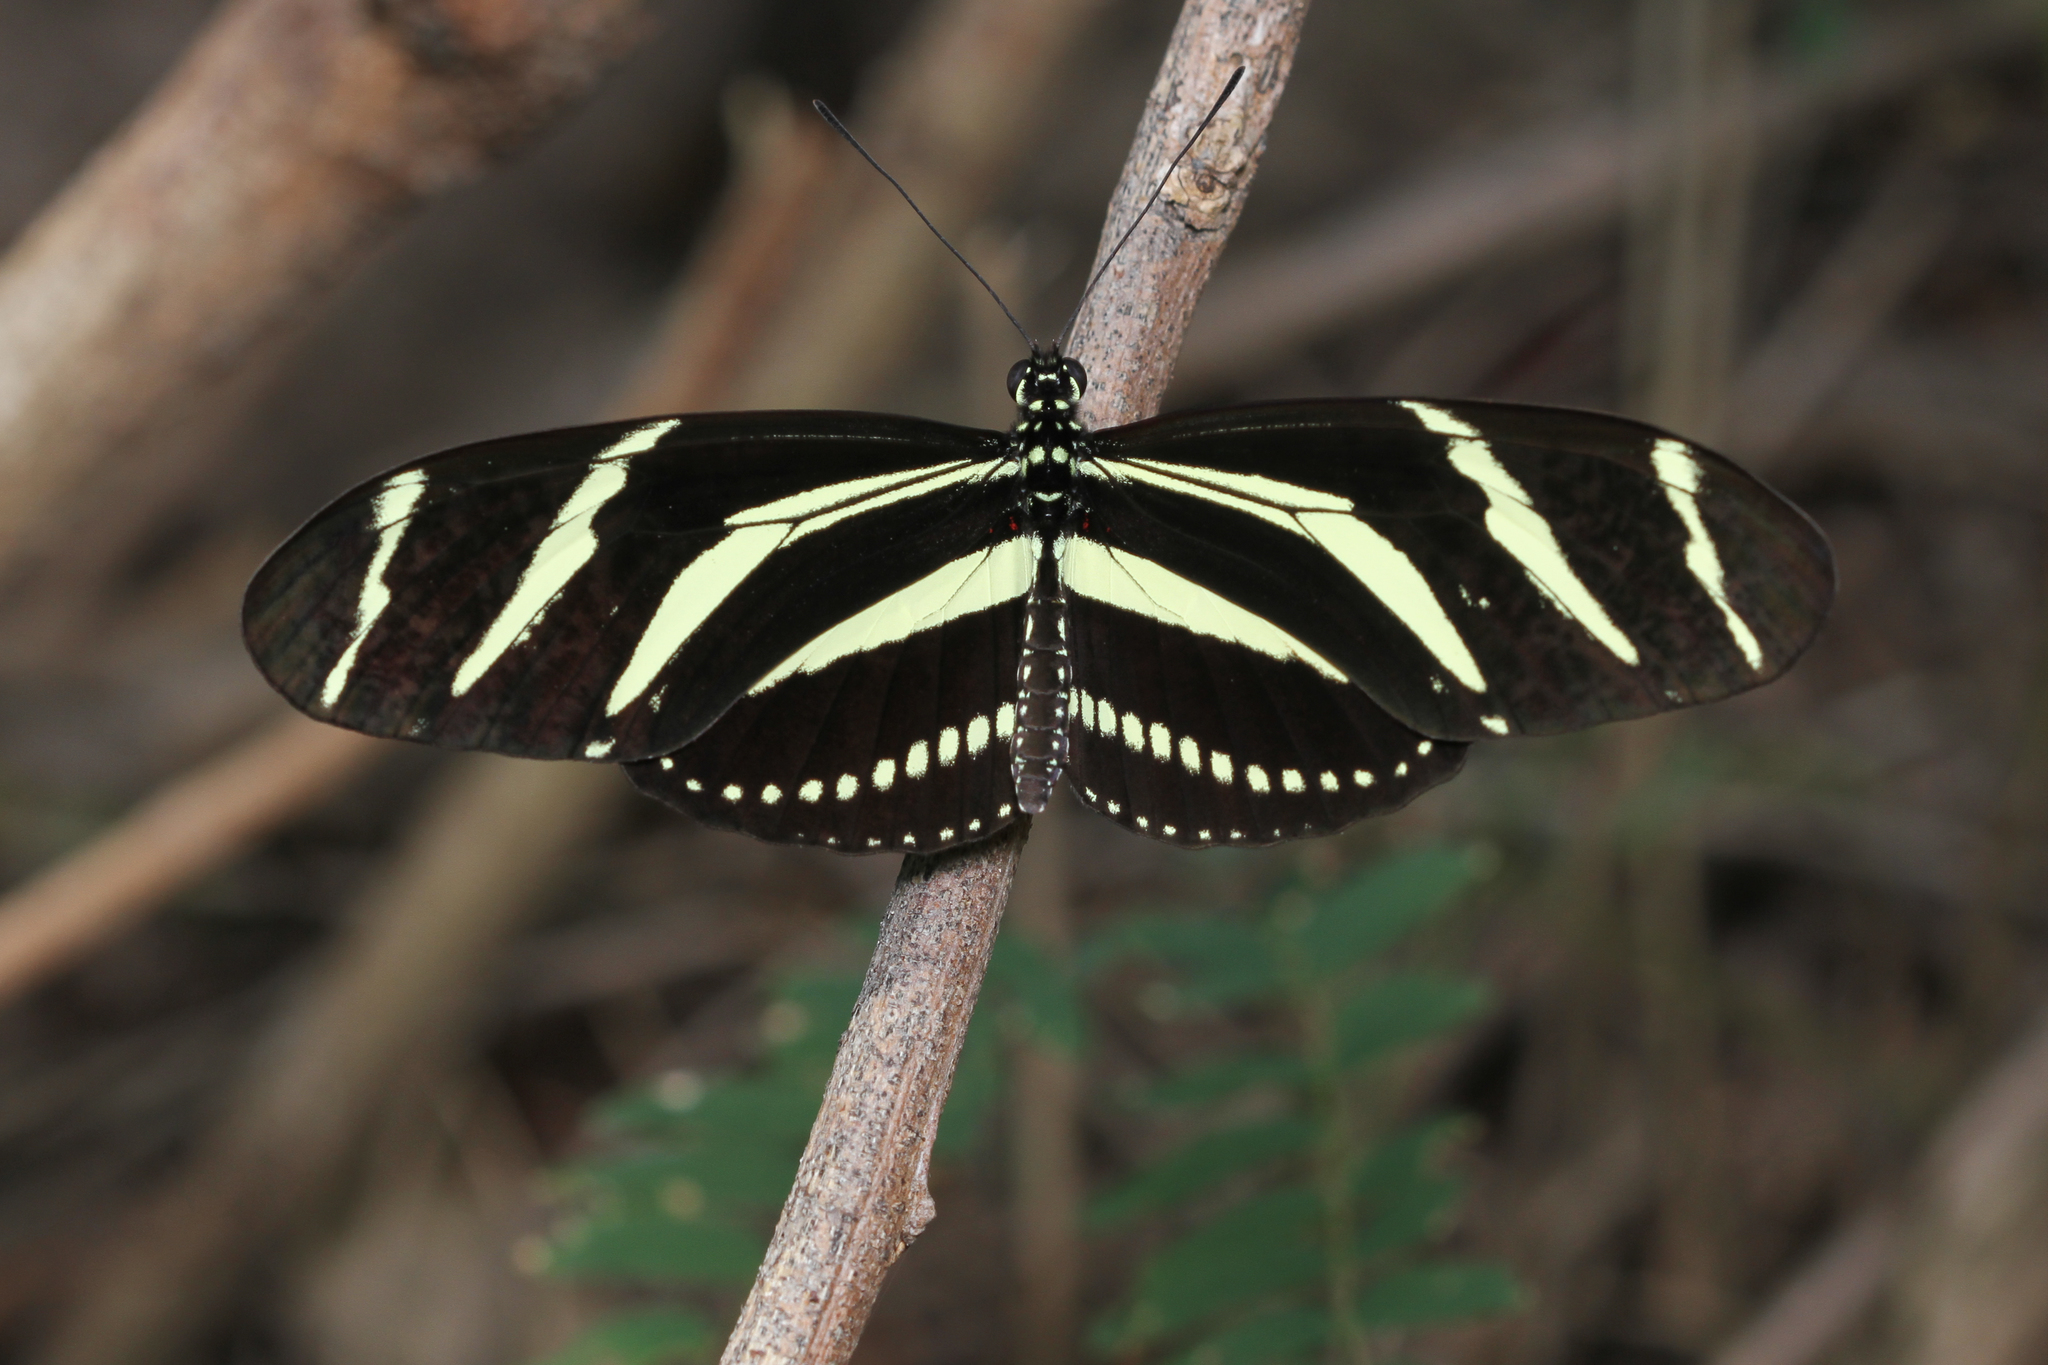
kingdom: Animalia
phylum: Arthropoda
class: Insecta
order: Lepidoptera
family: Nymphalidae
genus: Heliconius
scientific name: Heliconius charithonia
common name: Zebra long wing
